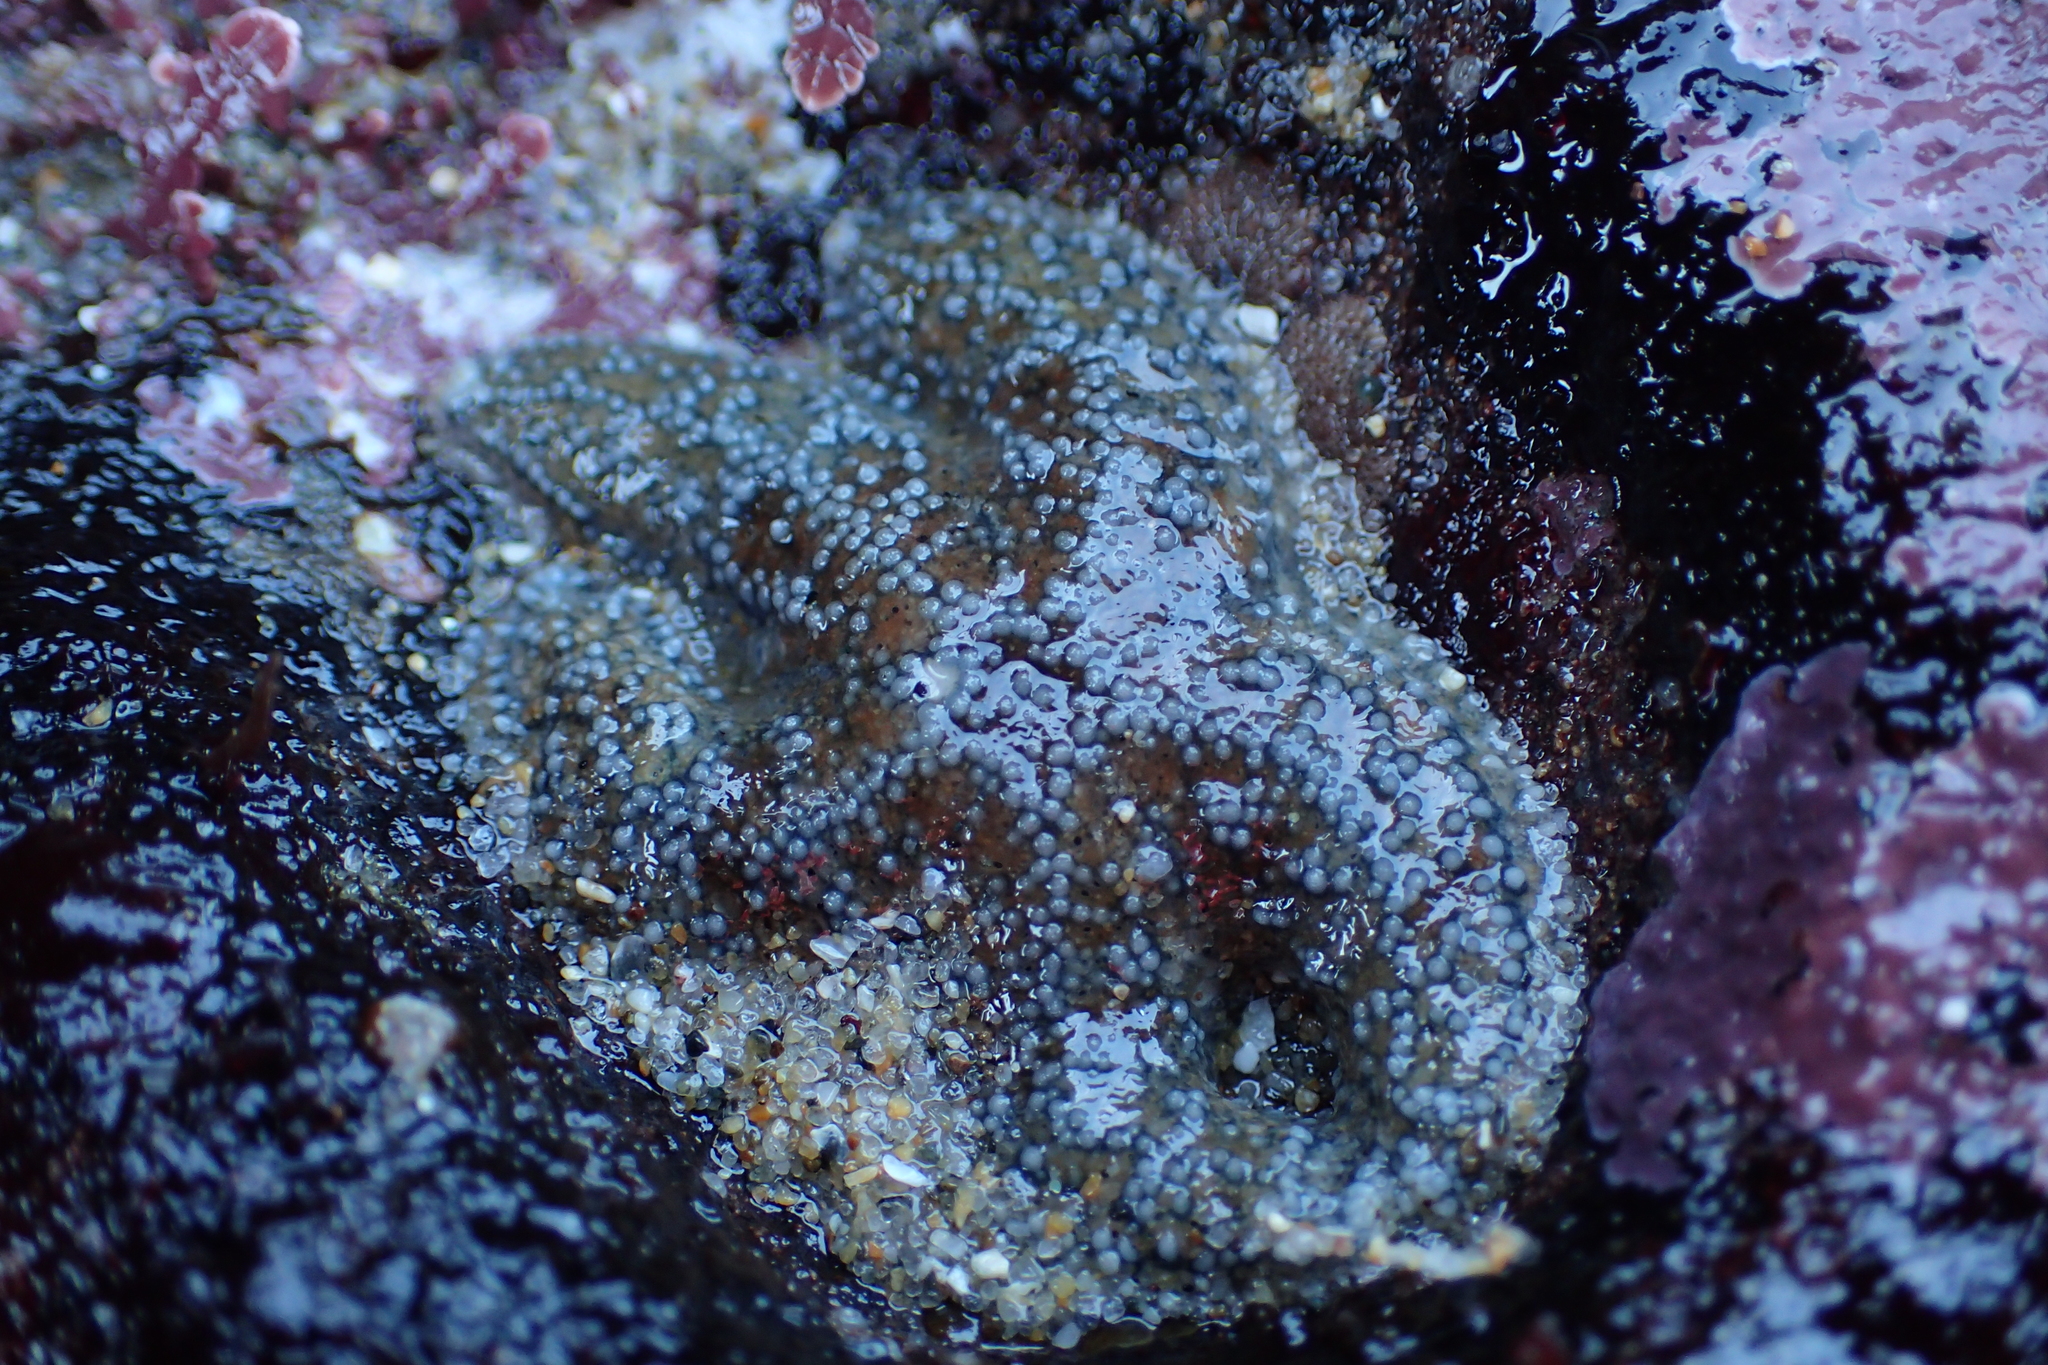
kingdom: Animalia
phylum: Echinodermata
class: Asteroidea
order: Forcipulatida
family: Asteriidae
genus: Pisaster
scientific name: Pisaster ochraceus
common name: Ochre stars
